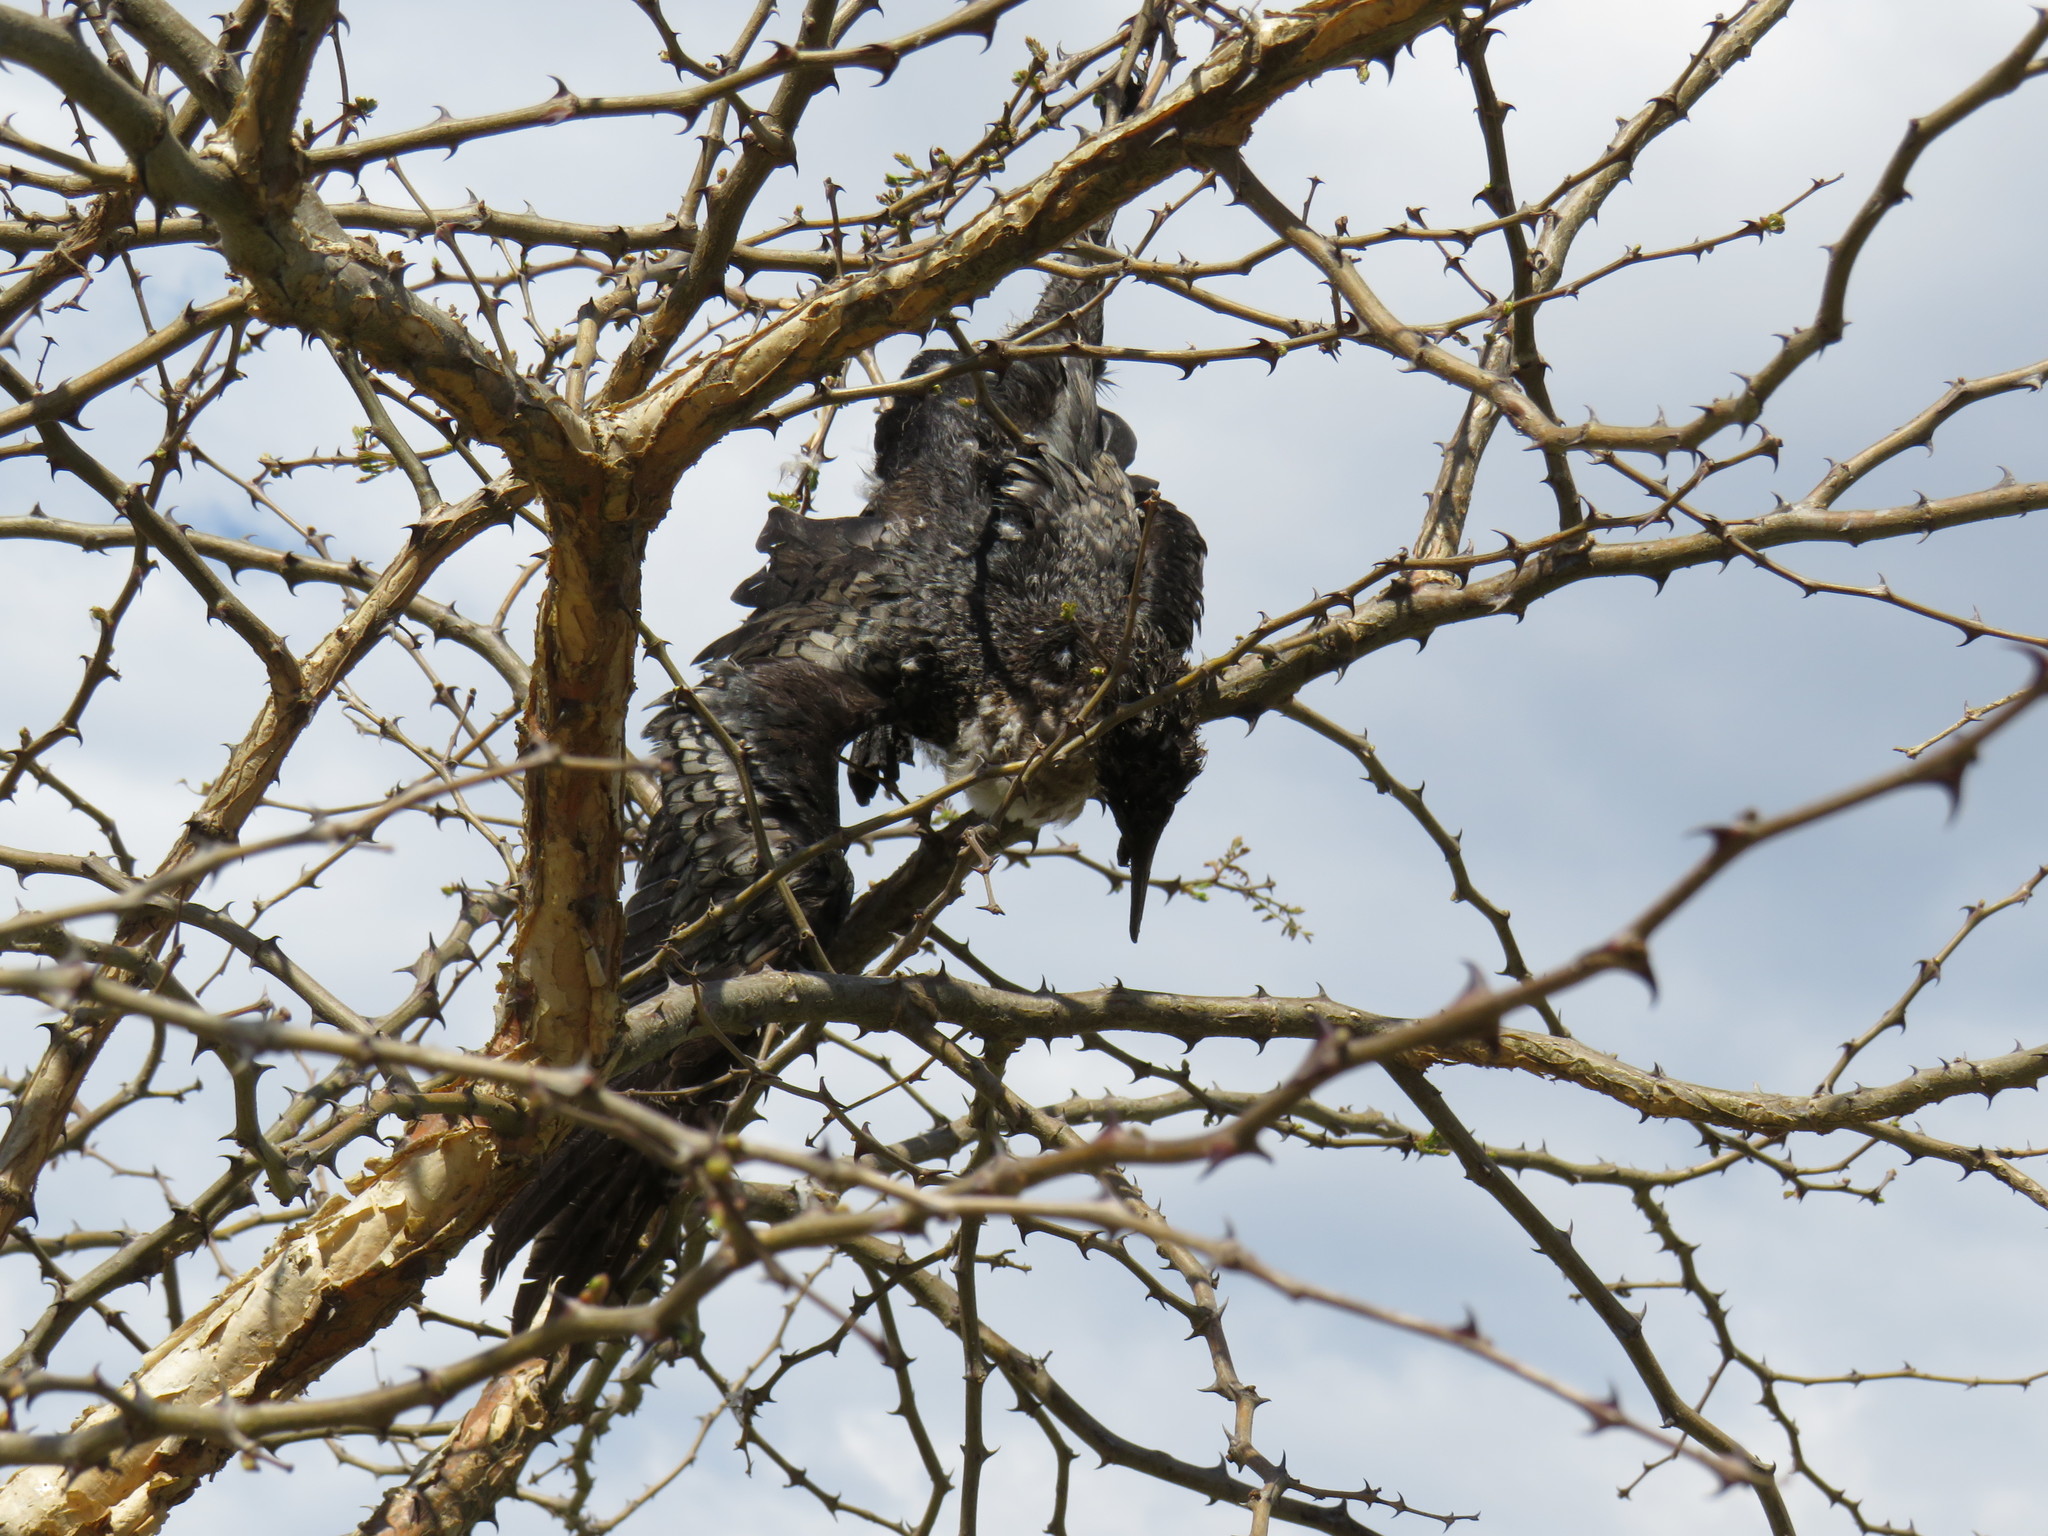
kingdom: Animalia
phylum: Chordata
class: Aves
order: Suliformes
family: Phalacrocoracidae
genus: Microcarbo
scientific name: Microcarbo africanus
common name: Long-tailed cormorant
